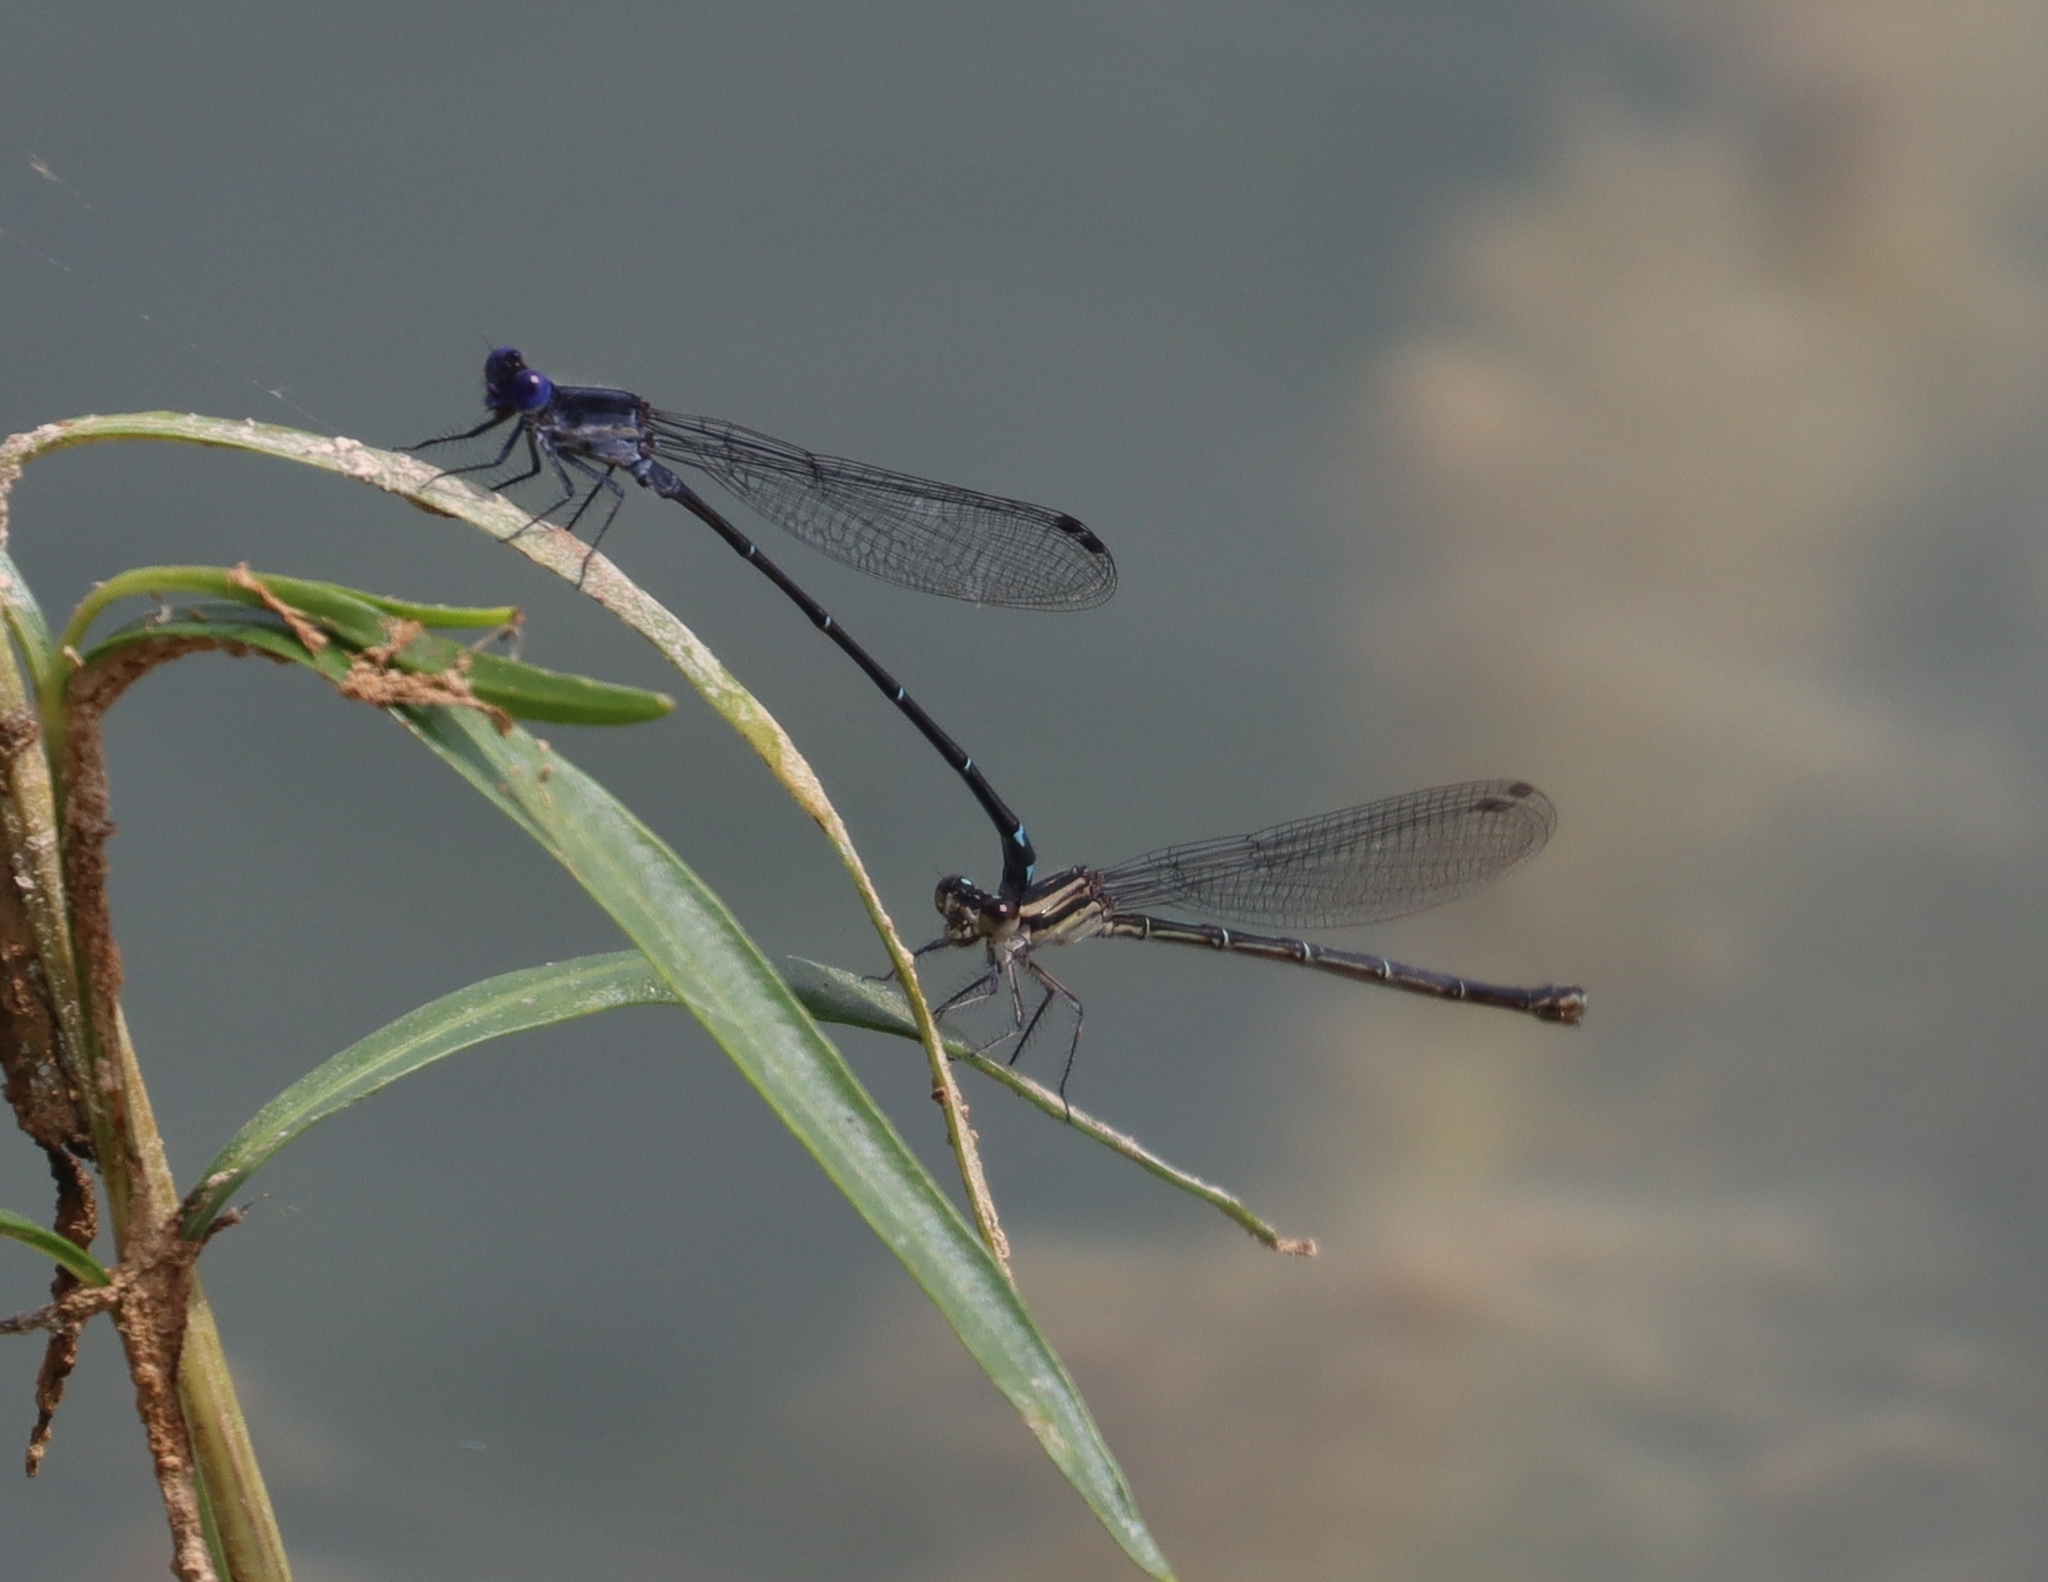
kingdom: Animalia
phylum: Arthropoda
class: Insecta
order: Odonata
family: Coenagrionidae
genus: Argia
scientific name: Argia translata
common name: Dusky dancer
